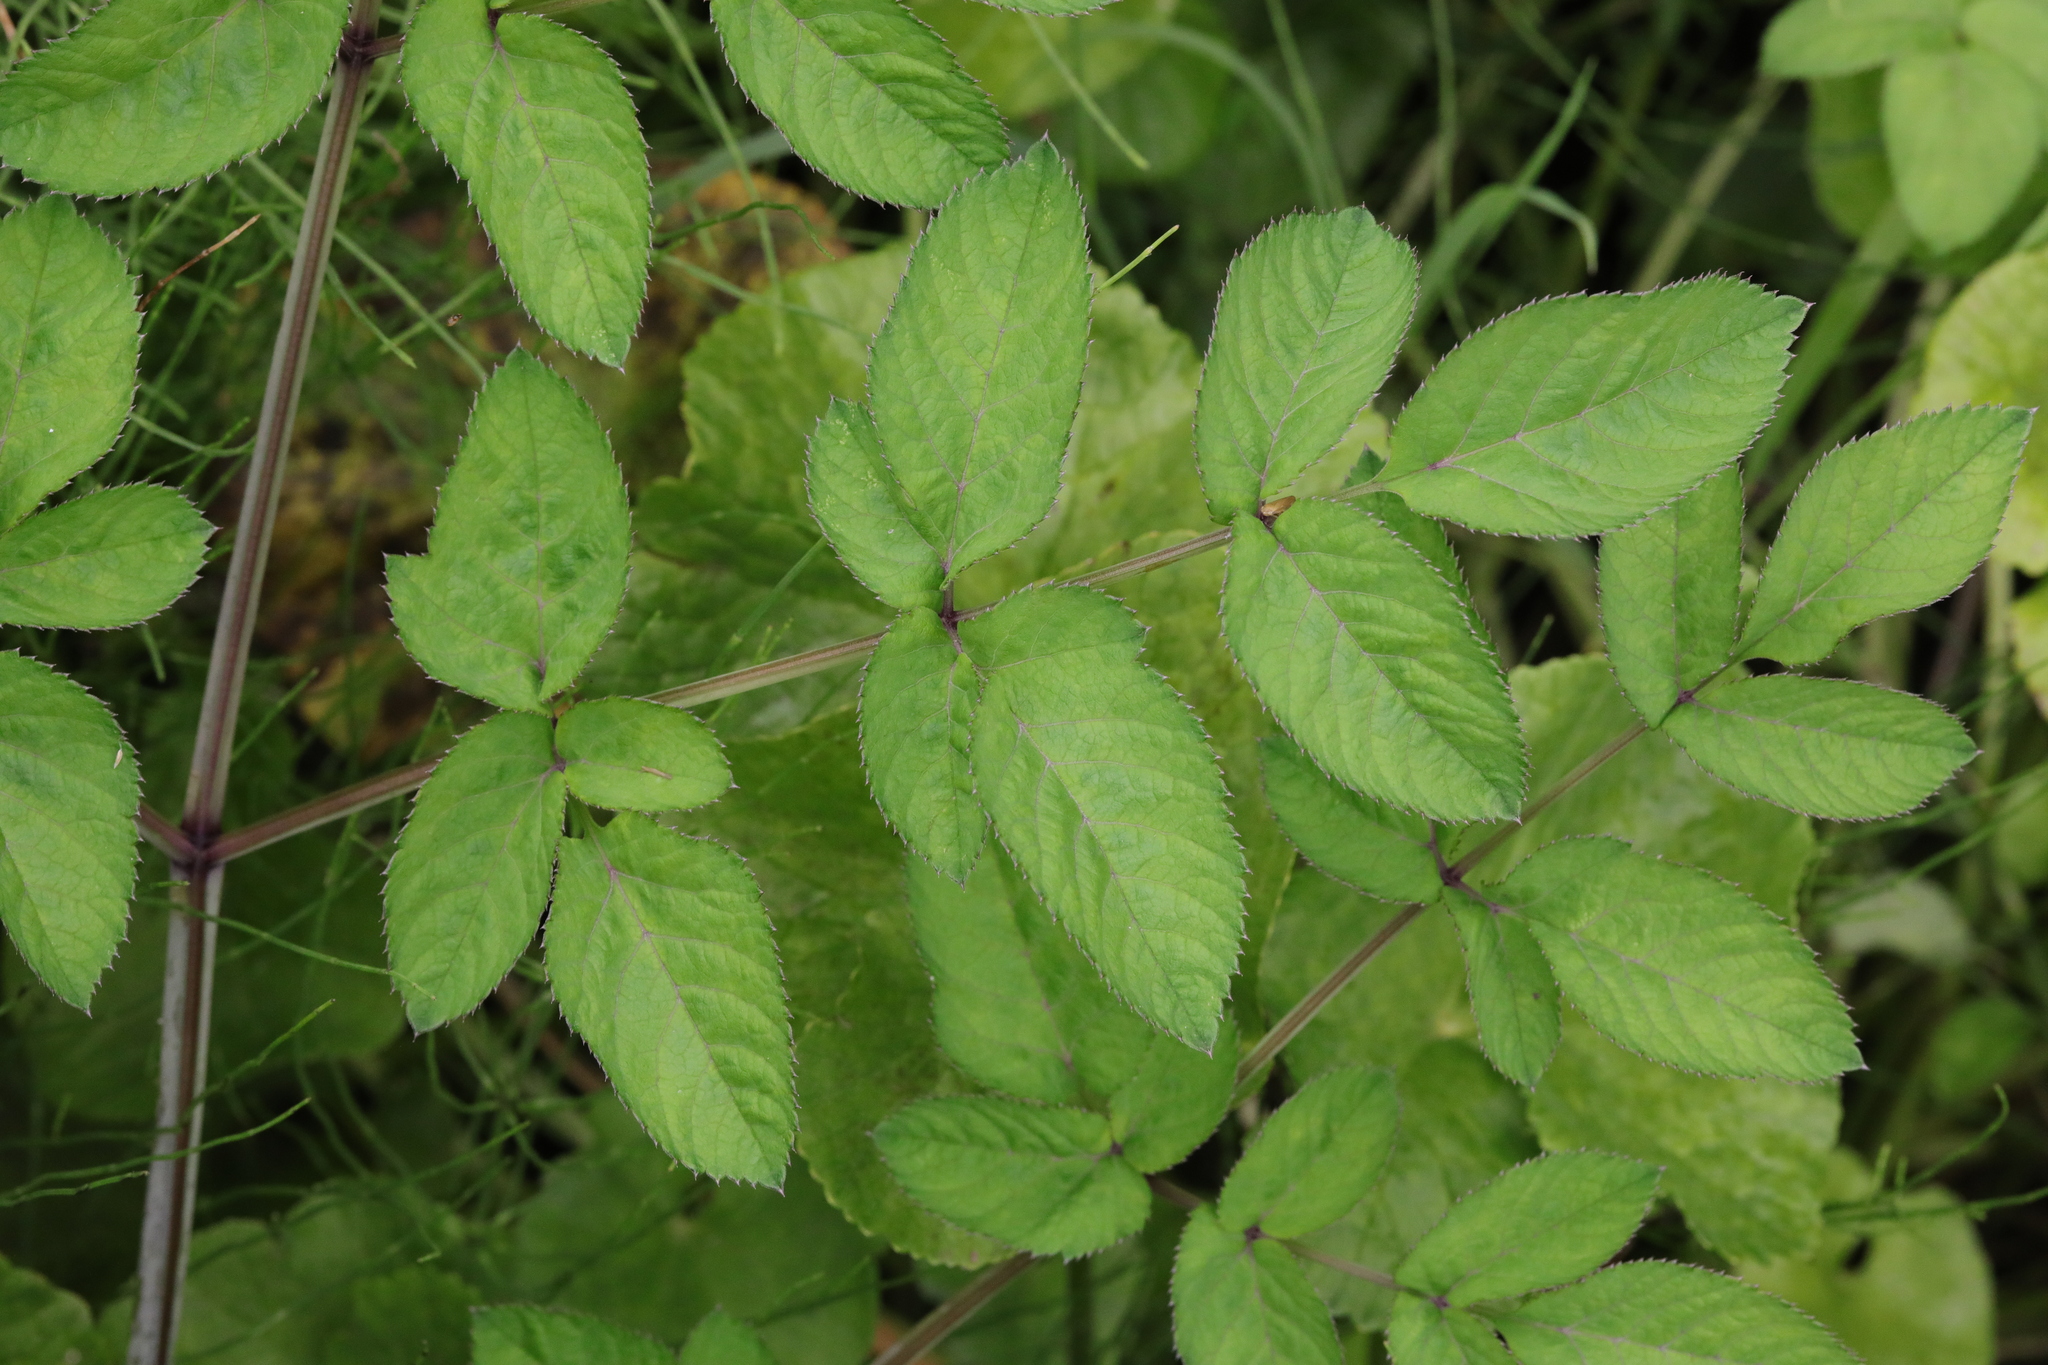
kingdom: Plantae
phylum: Tracheophyta
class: Magnoliopsida
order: Apiales
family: Apiaceae
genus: Angelica
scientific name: Angelica sylvestris
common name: Wild angelica
